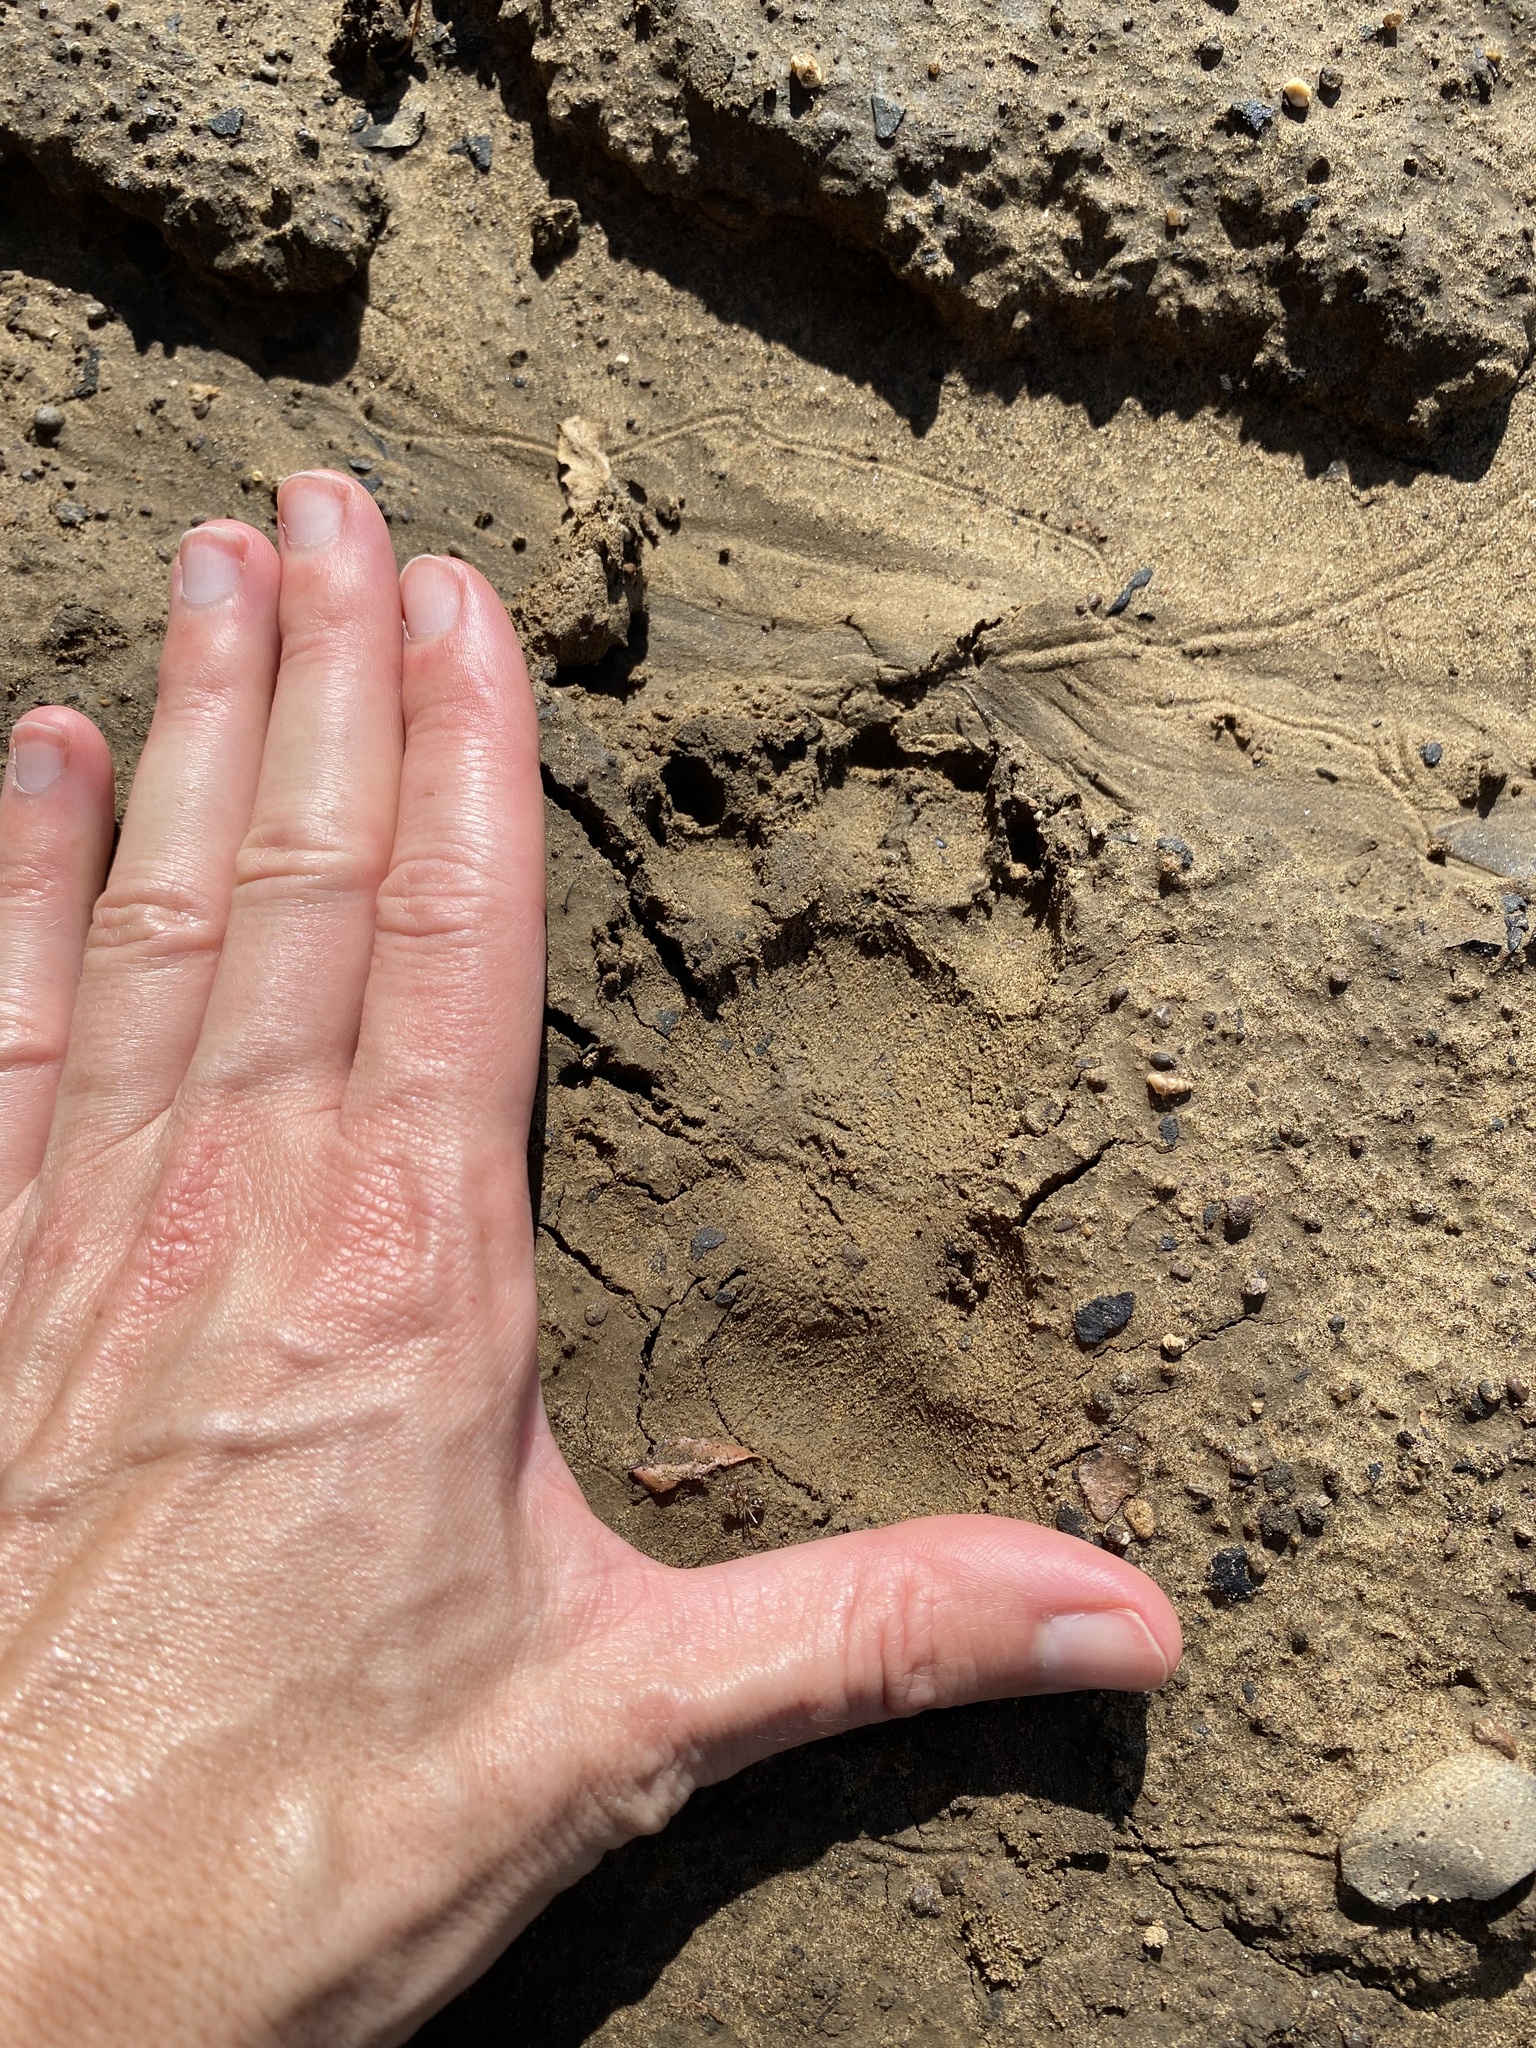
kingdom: Animalia
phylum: Chordata
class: Mammalia
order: Rodentia
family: Hystricidae
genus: Hystrix
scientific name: Hystrix africaeaustralis
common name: Cape porcupine
